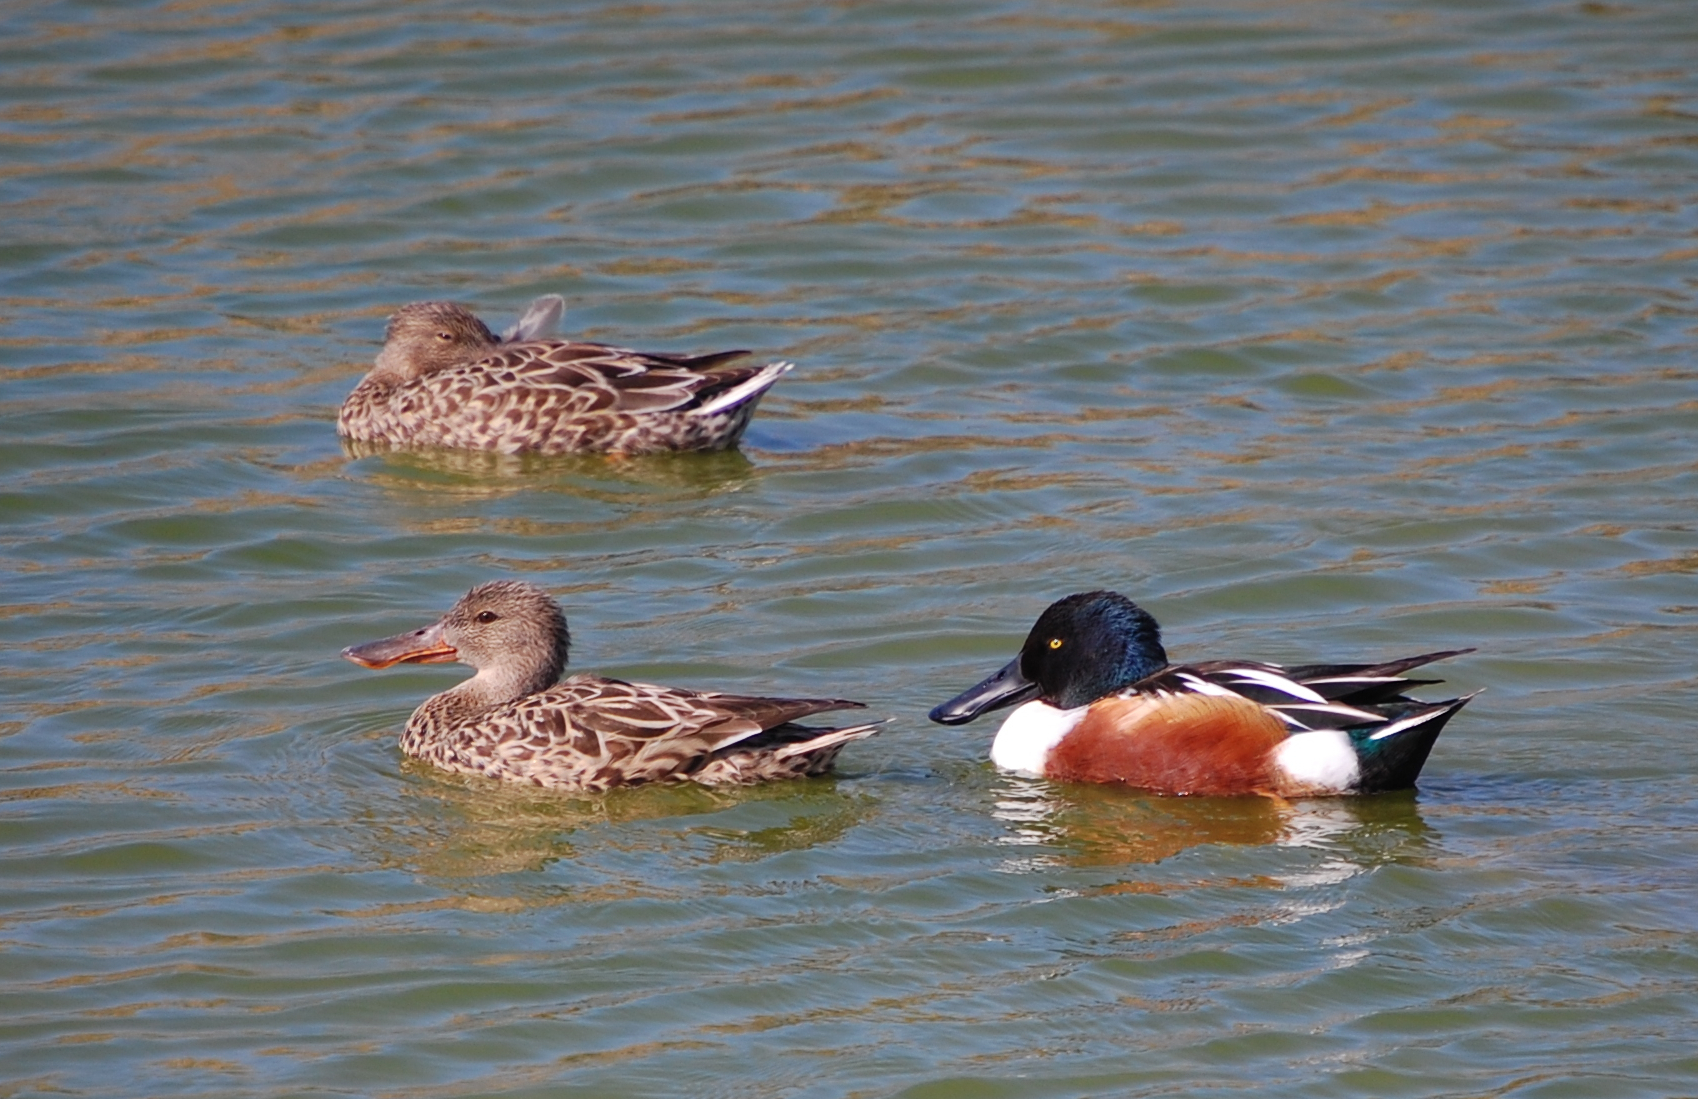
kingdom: Animalia
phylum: Chordata
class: Aves
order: Anseriformes
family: Anatidae
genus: Spatula
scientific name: Spatula clypeata
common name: Northern shoveler
